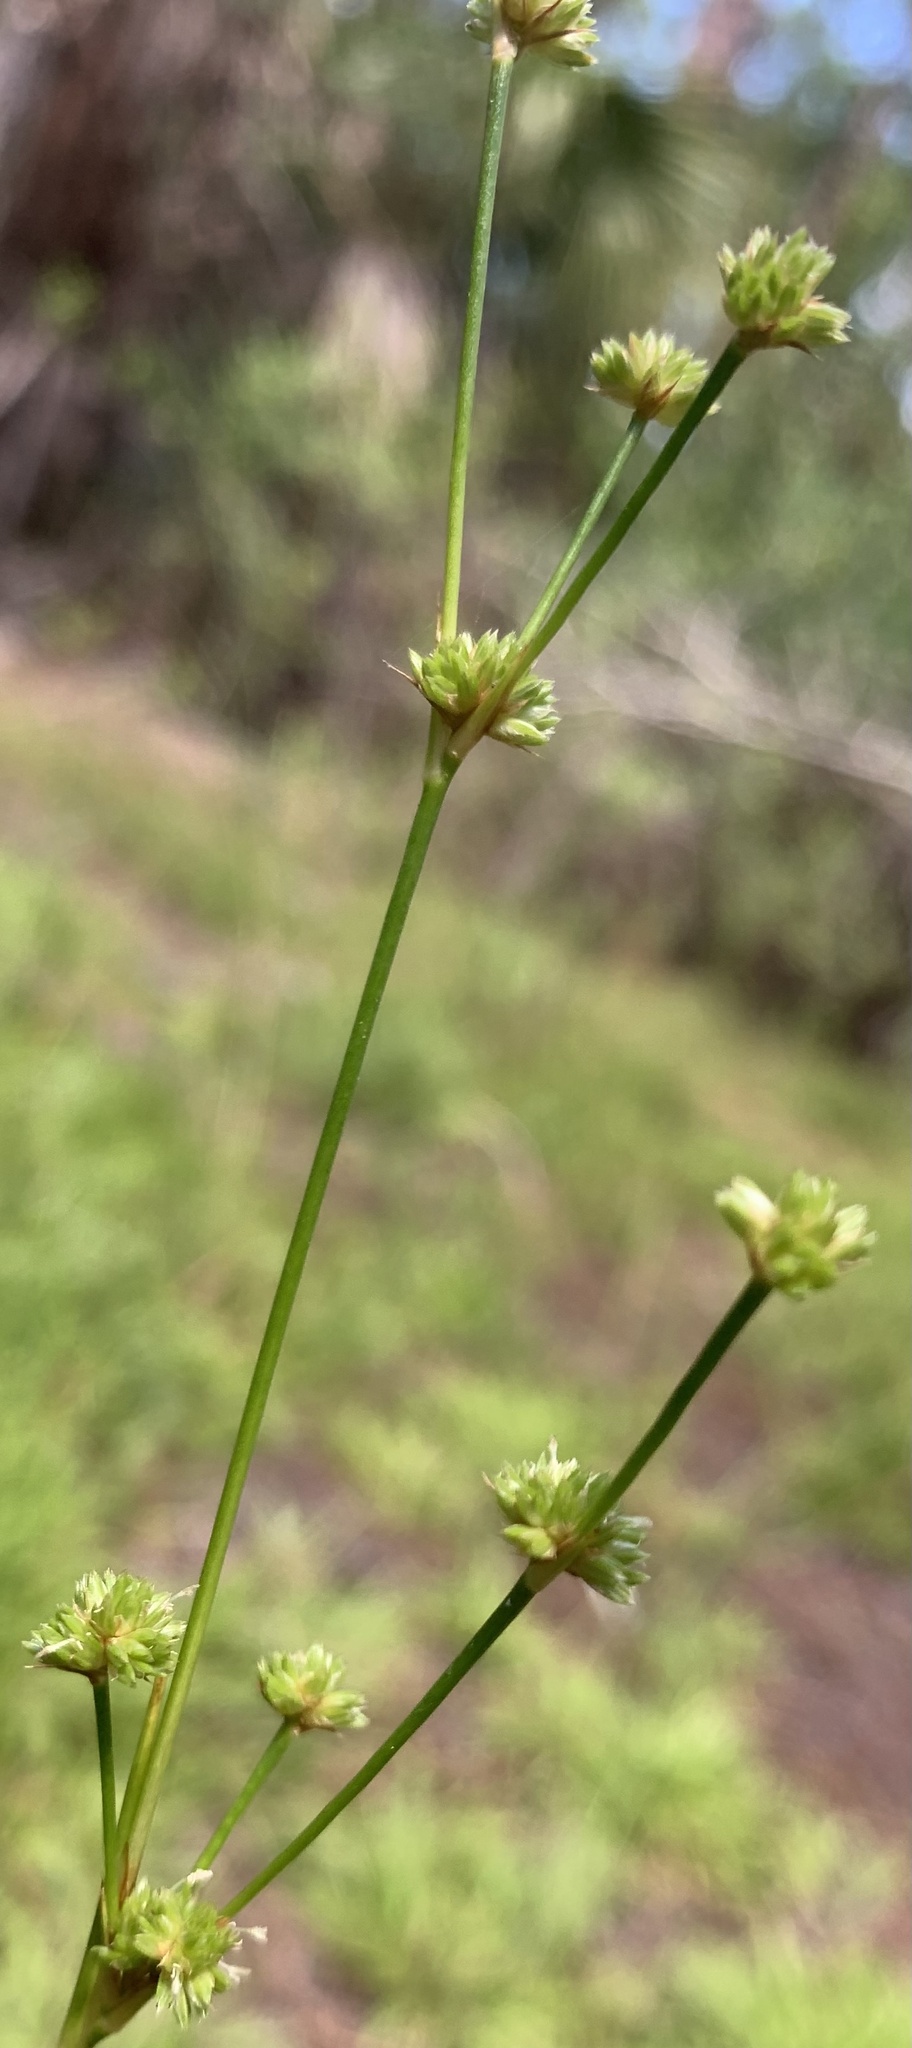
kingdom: Plantae
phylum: Tracheophyta
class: Liliopsida
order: Poales
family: Juncaceae
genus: Juncus
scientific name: Juncus scirpoides
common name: Needlepod rush
